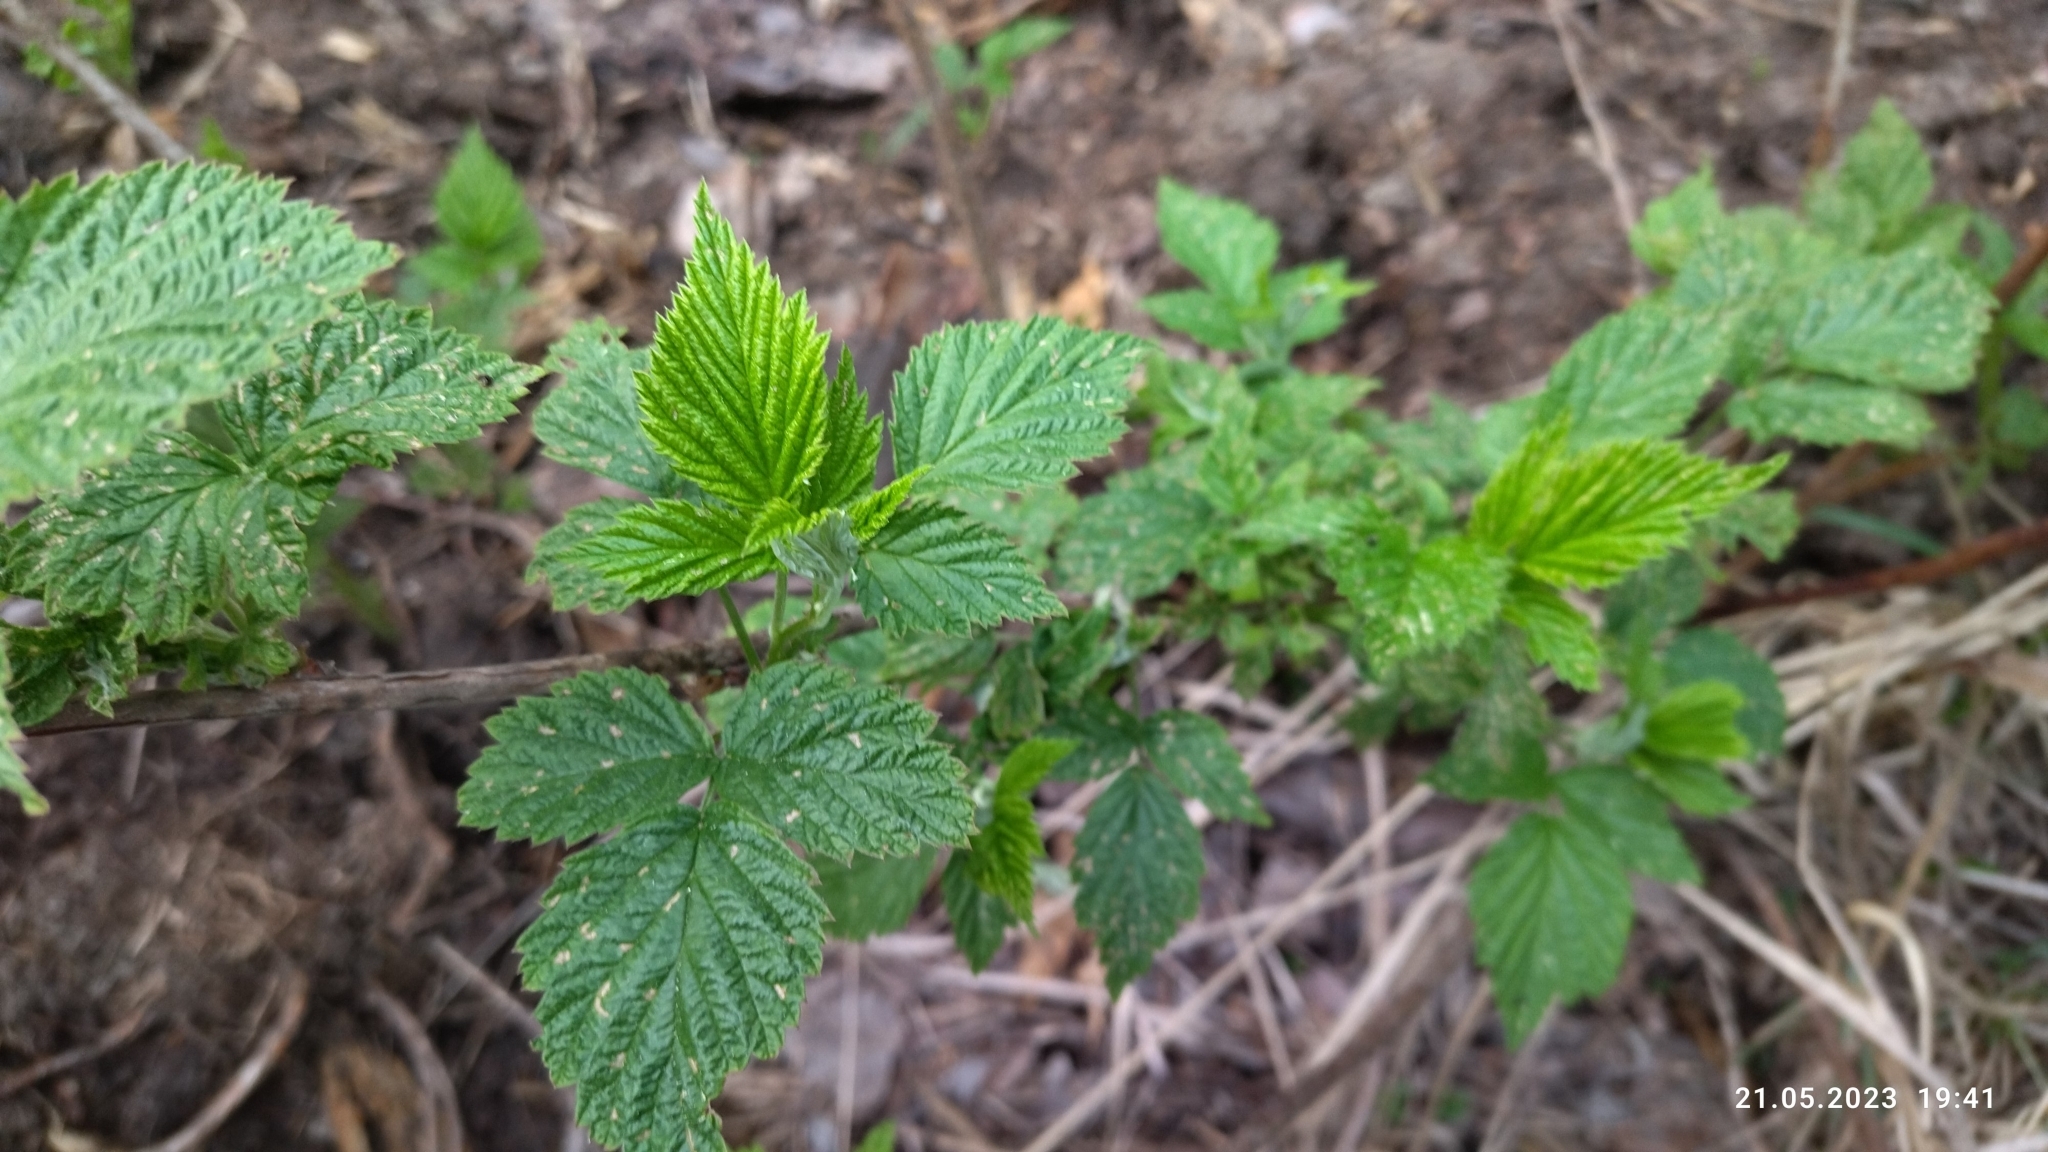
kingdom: Plantae
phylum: Tracheophyta
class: Magnoliopsida
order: Rosales
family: Rosaceae
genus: Rubus
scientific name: Rubus idaeus
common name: Raspberry
